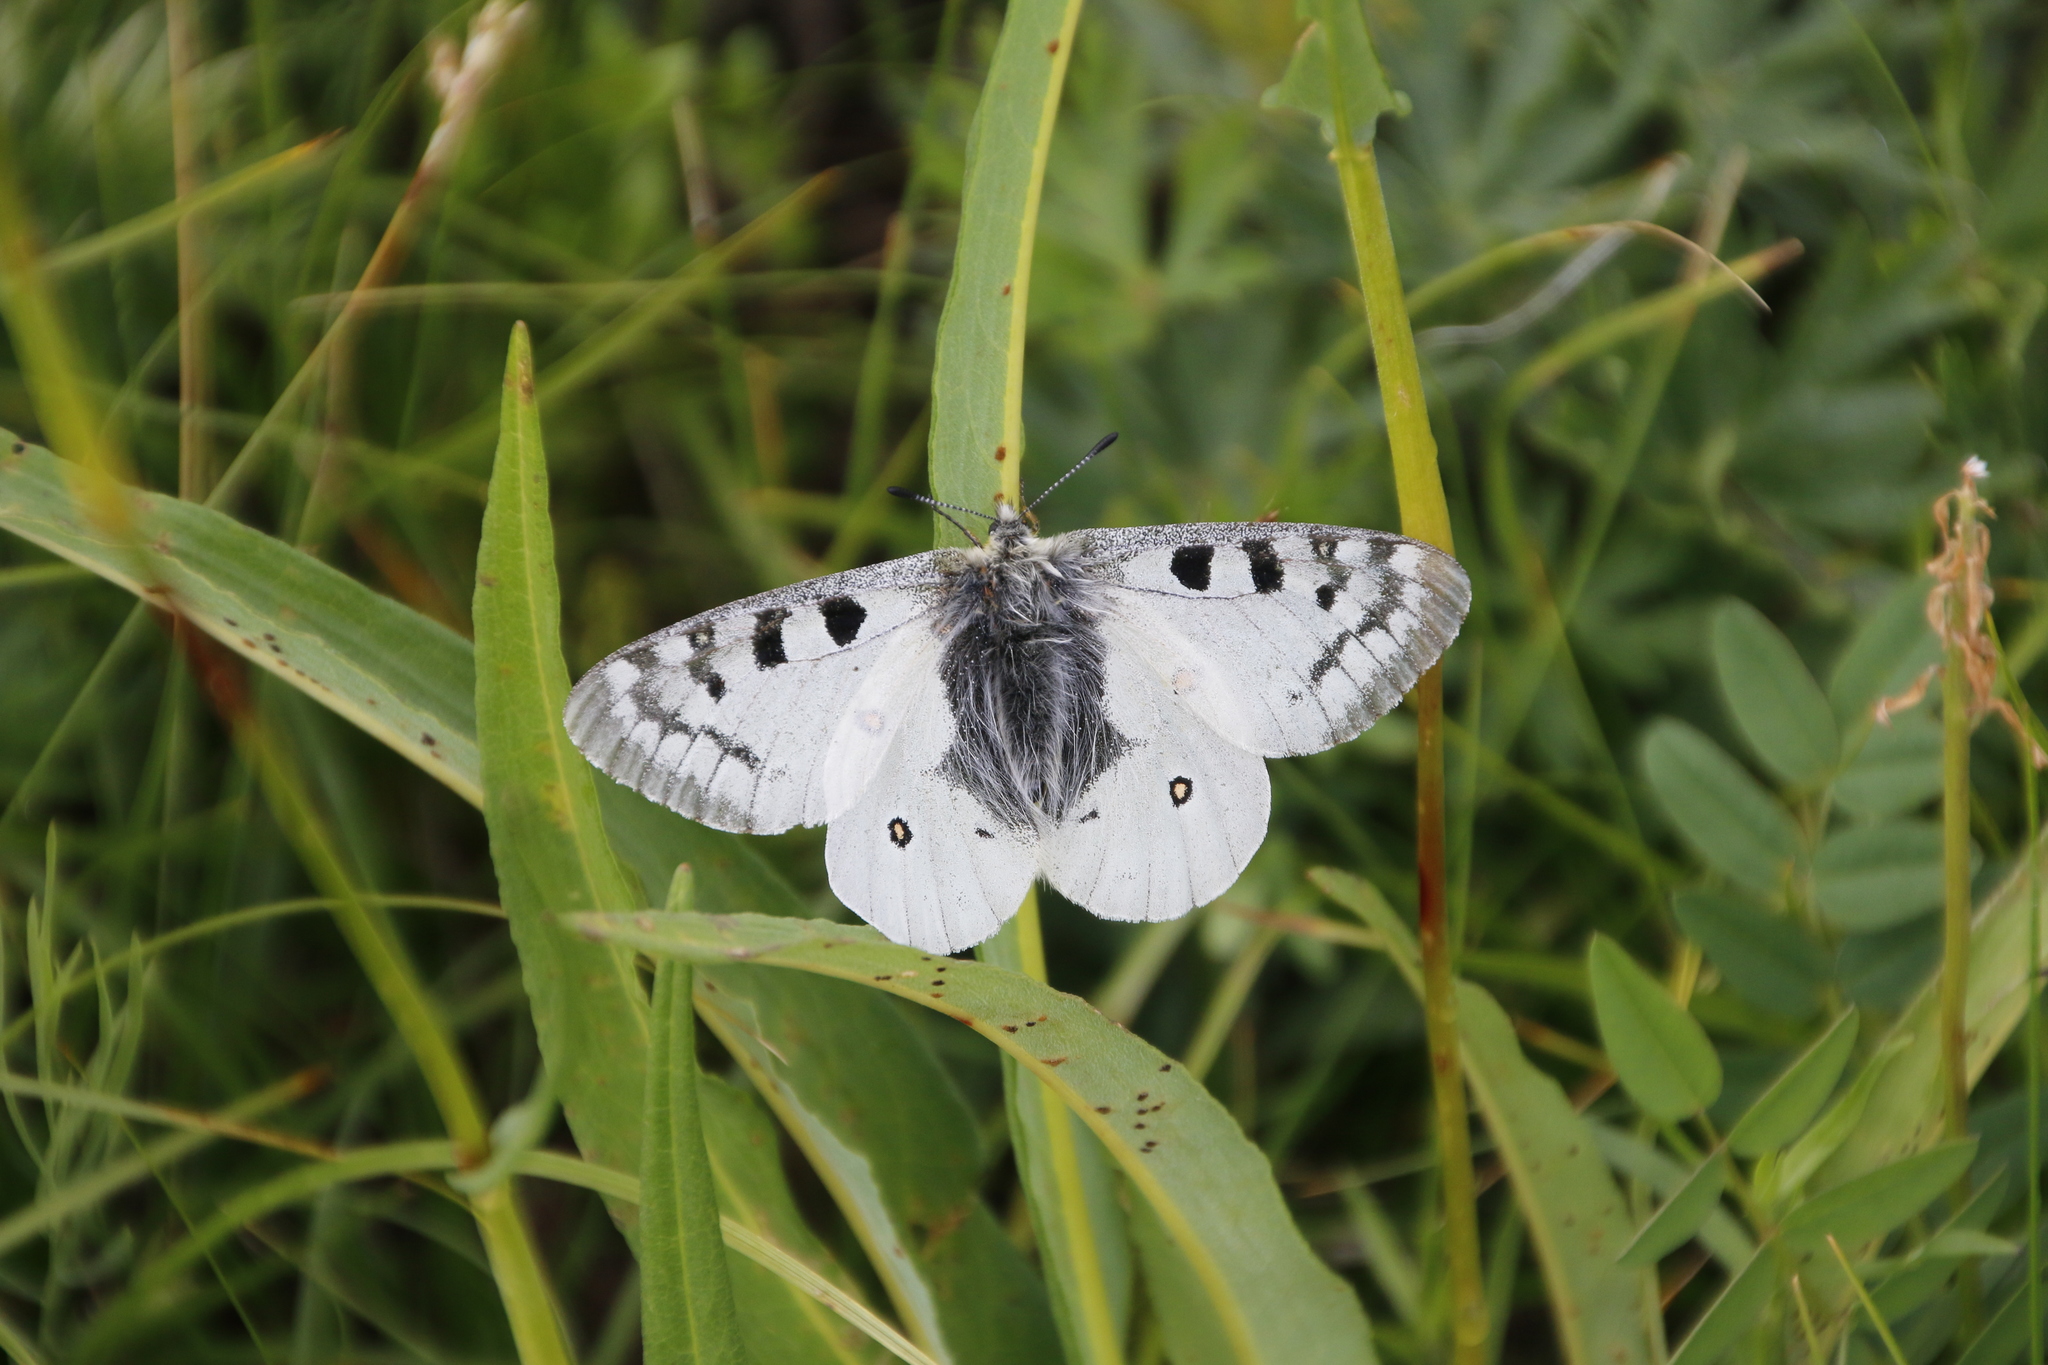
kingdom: Animalia
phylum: Arthropoda
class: Insecta
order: Lepidoptera
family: Papilionidae
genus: Parnassius
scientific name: Parnassius phoebus
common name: Small apollo
